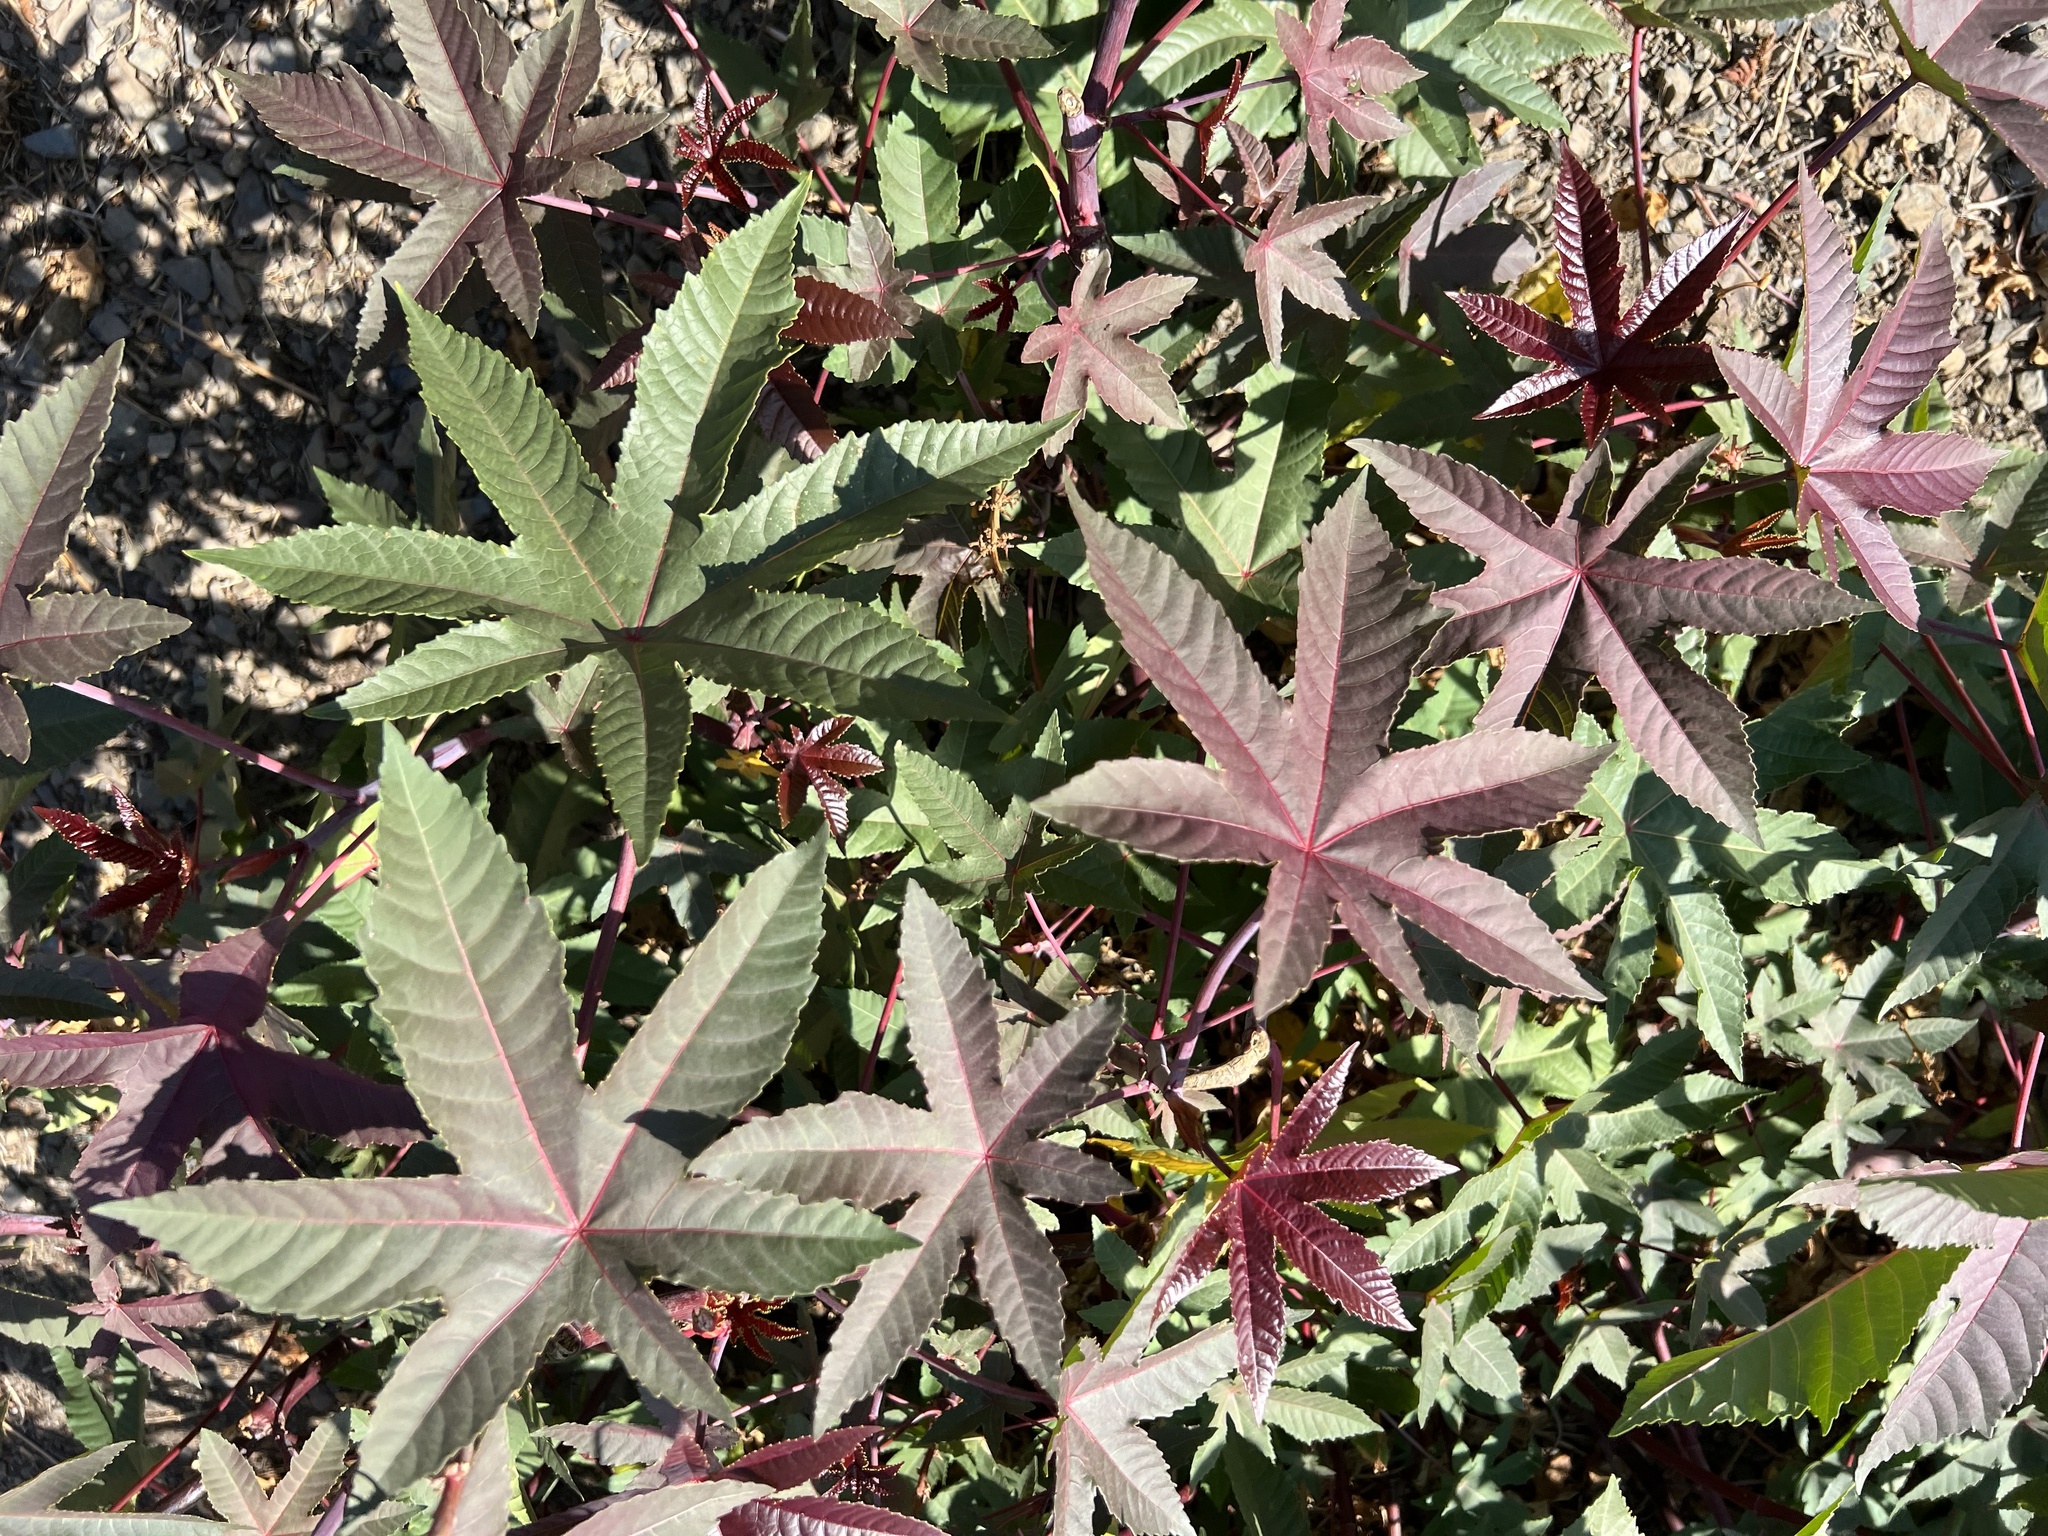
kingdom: Plantae
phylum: Tracheophyta
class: Magnoliopsida
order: Malpighiales
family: Euphorbiaceae
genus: Ricinus
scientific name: Ricinus communis
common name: Castor-oil-plant
